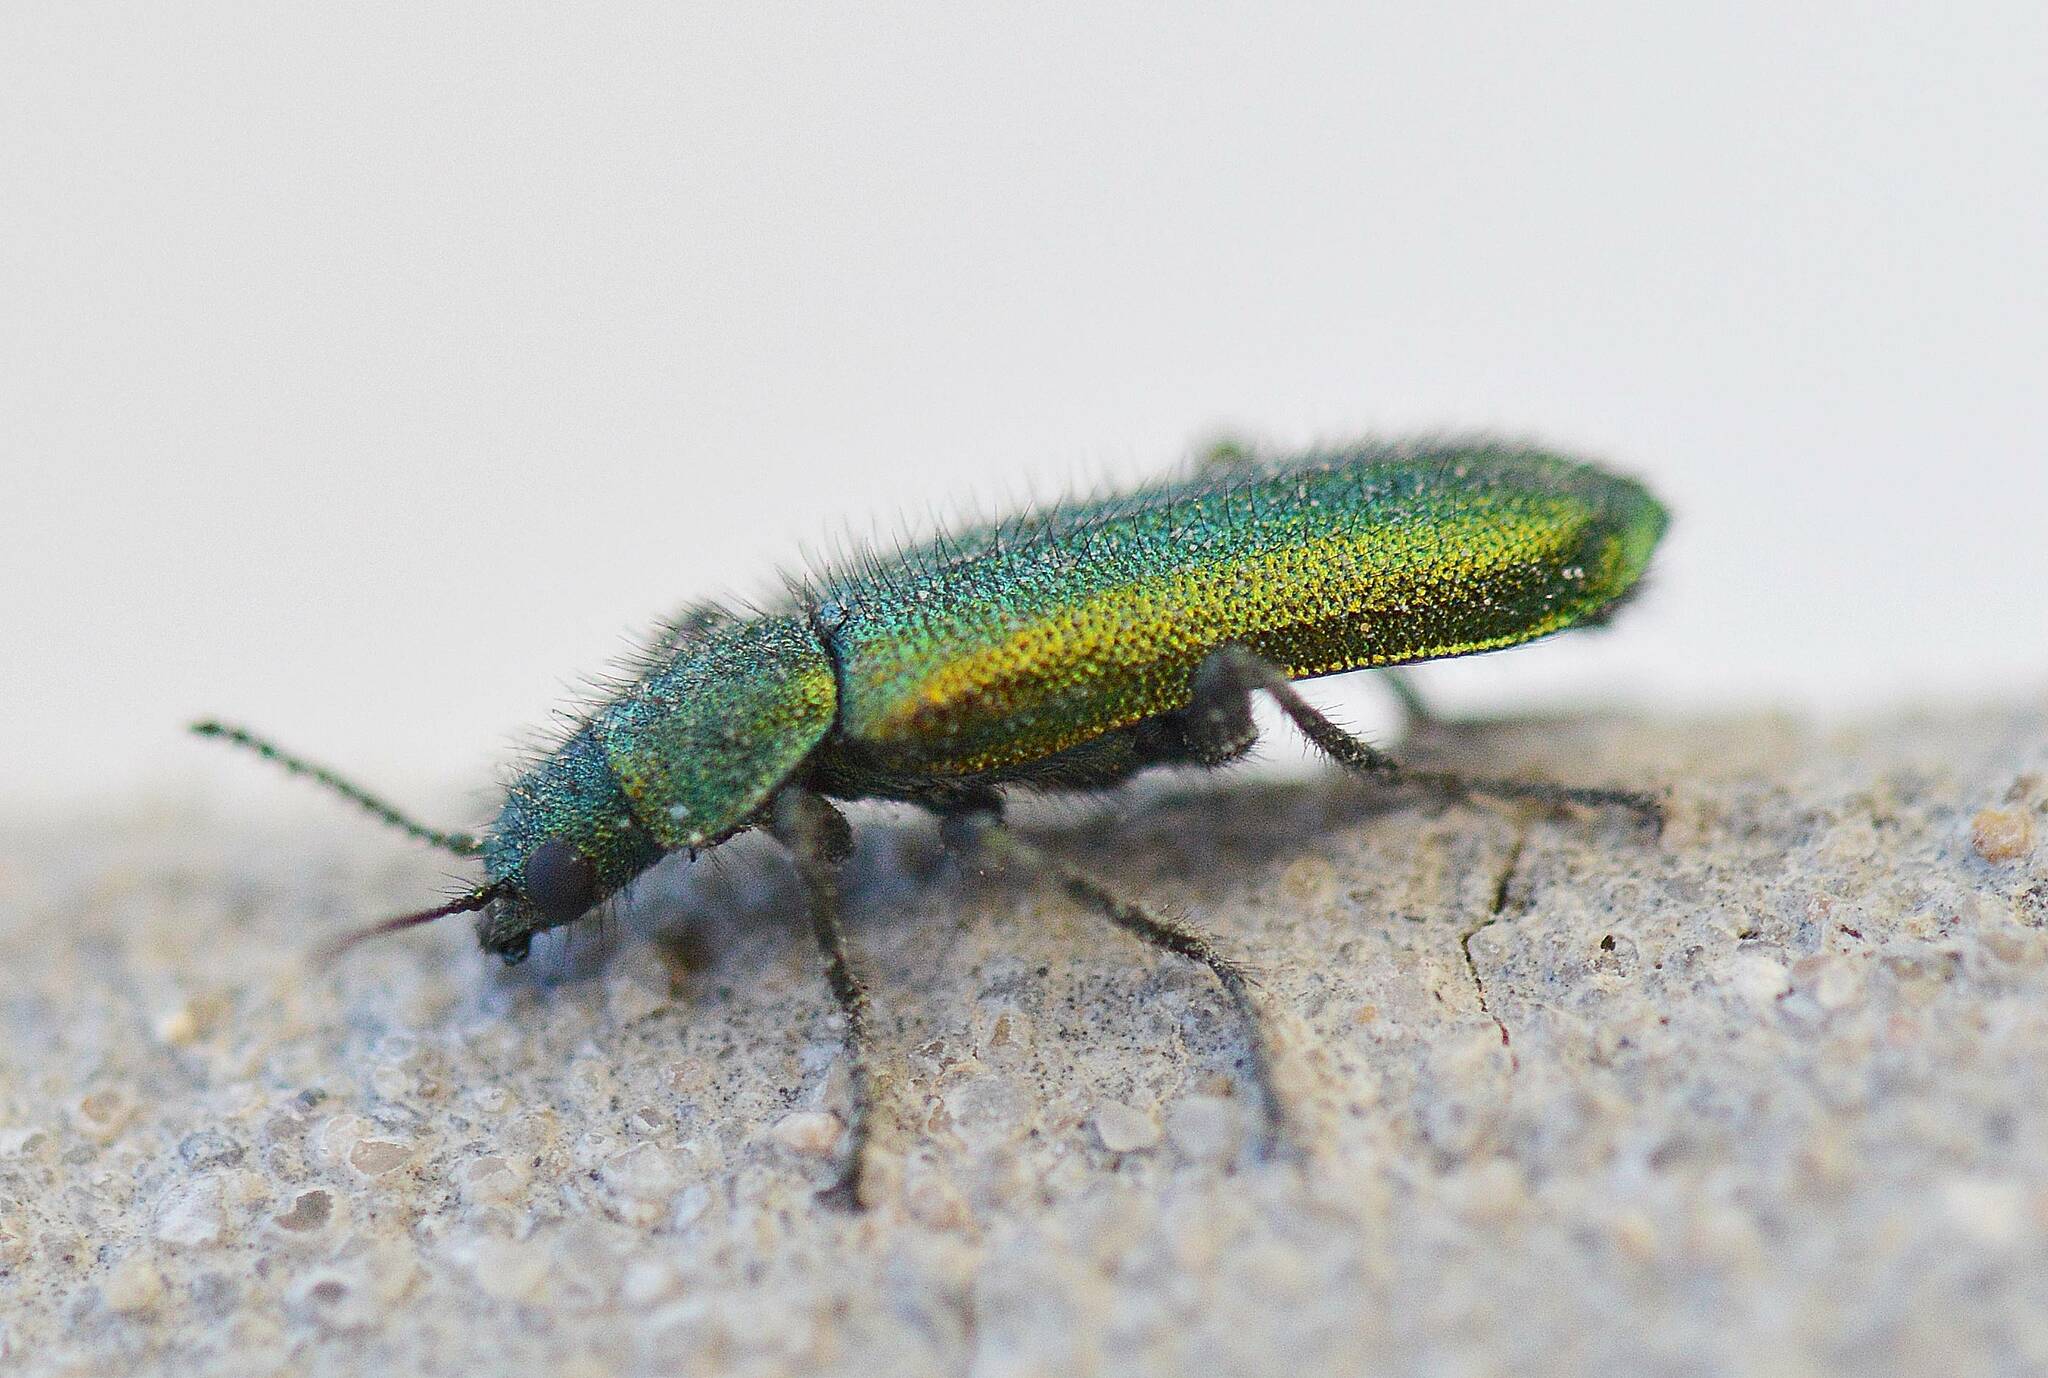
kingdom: Animalia
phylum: Arthropoda
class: Insecta
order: Coleoptera
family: Dasytidae
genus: Psilothrix
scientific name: Psilothrix viridicoerulea
